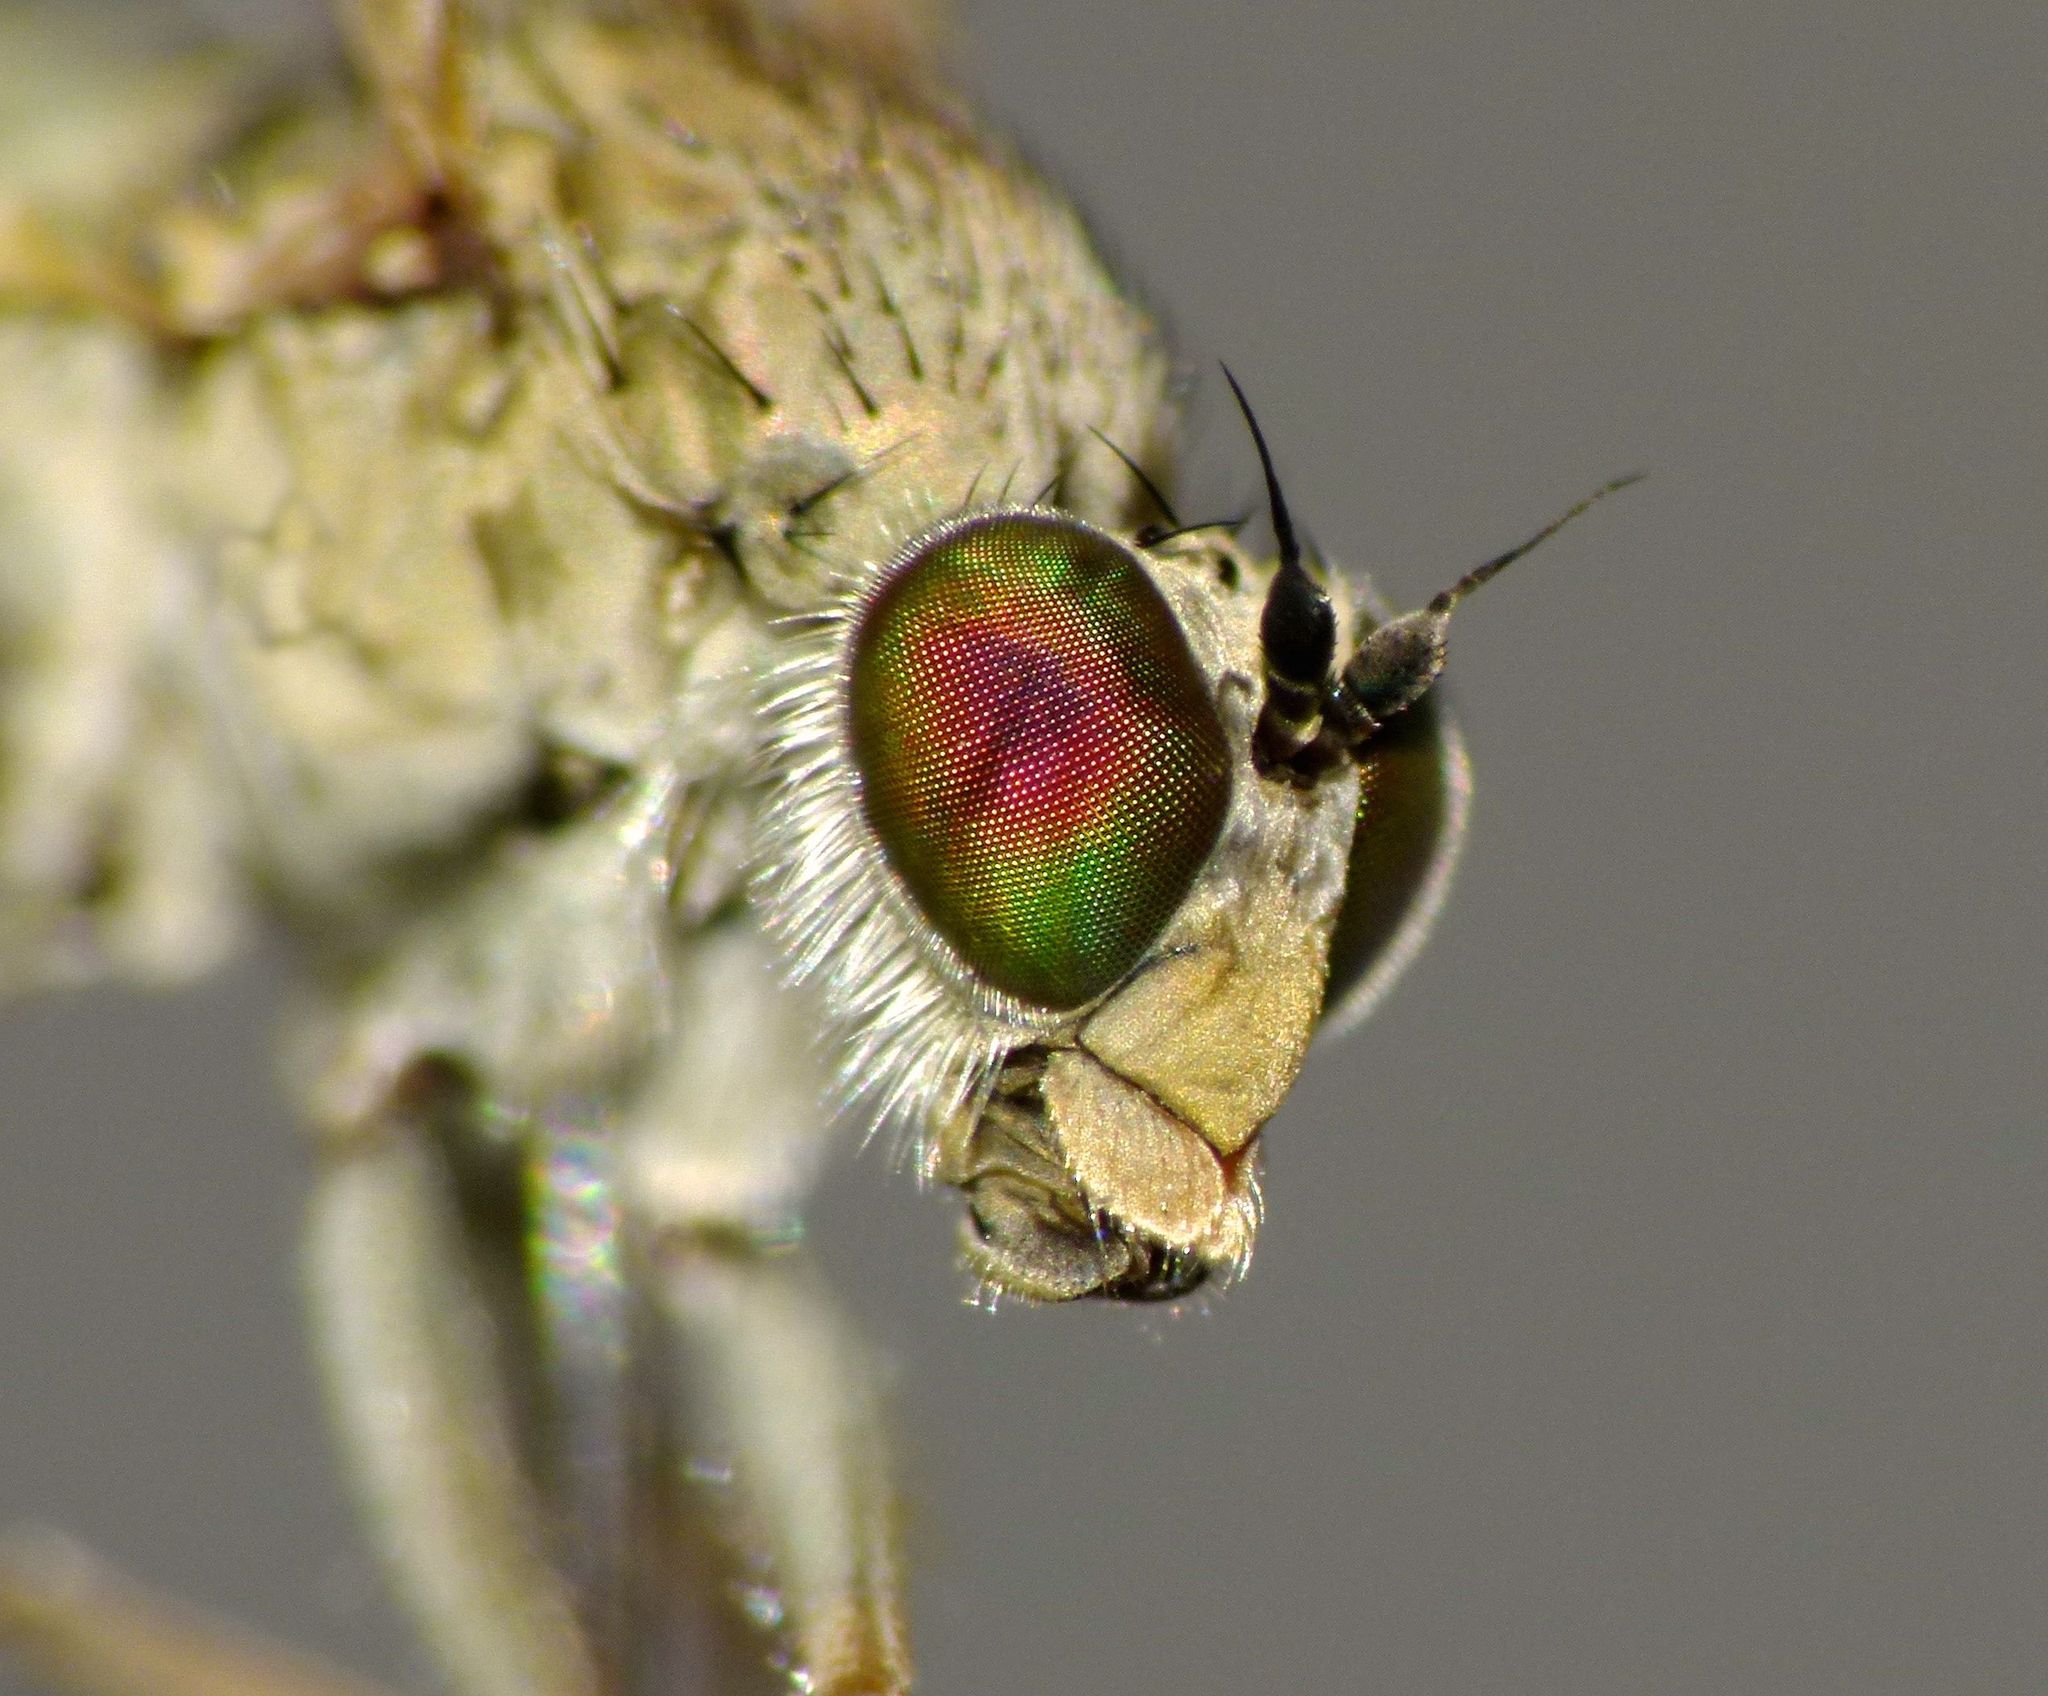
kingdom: Animalia
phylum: Arthropoda
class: Insecta
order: Diptera
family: Dolichopodidae
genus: Scorpiurus
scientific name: Scorpiurus aramoana
